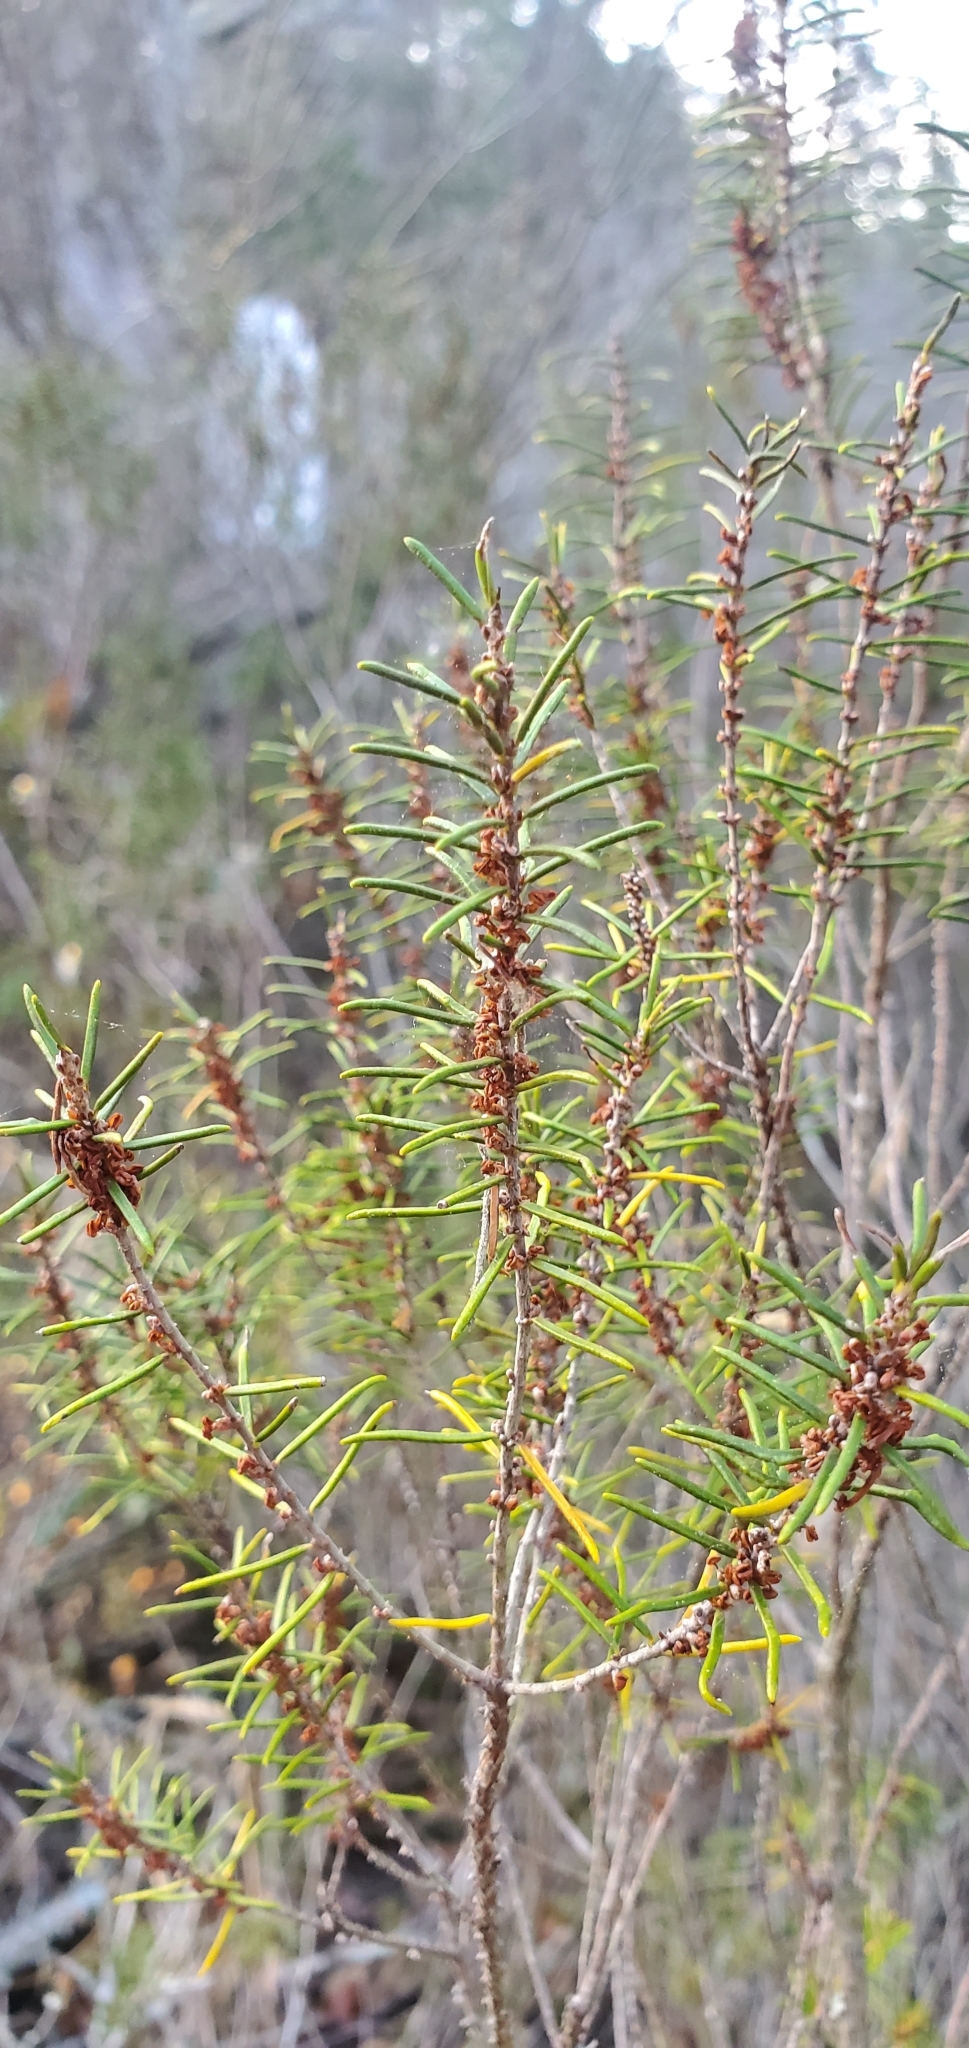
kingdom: Plantae
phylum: Tracheophyta
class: Magnoliopsida
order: Ericales
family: Ericaceae
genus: Ceratiola
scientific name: Ceratiola ericoides
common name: Sandhill-rosemary
